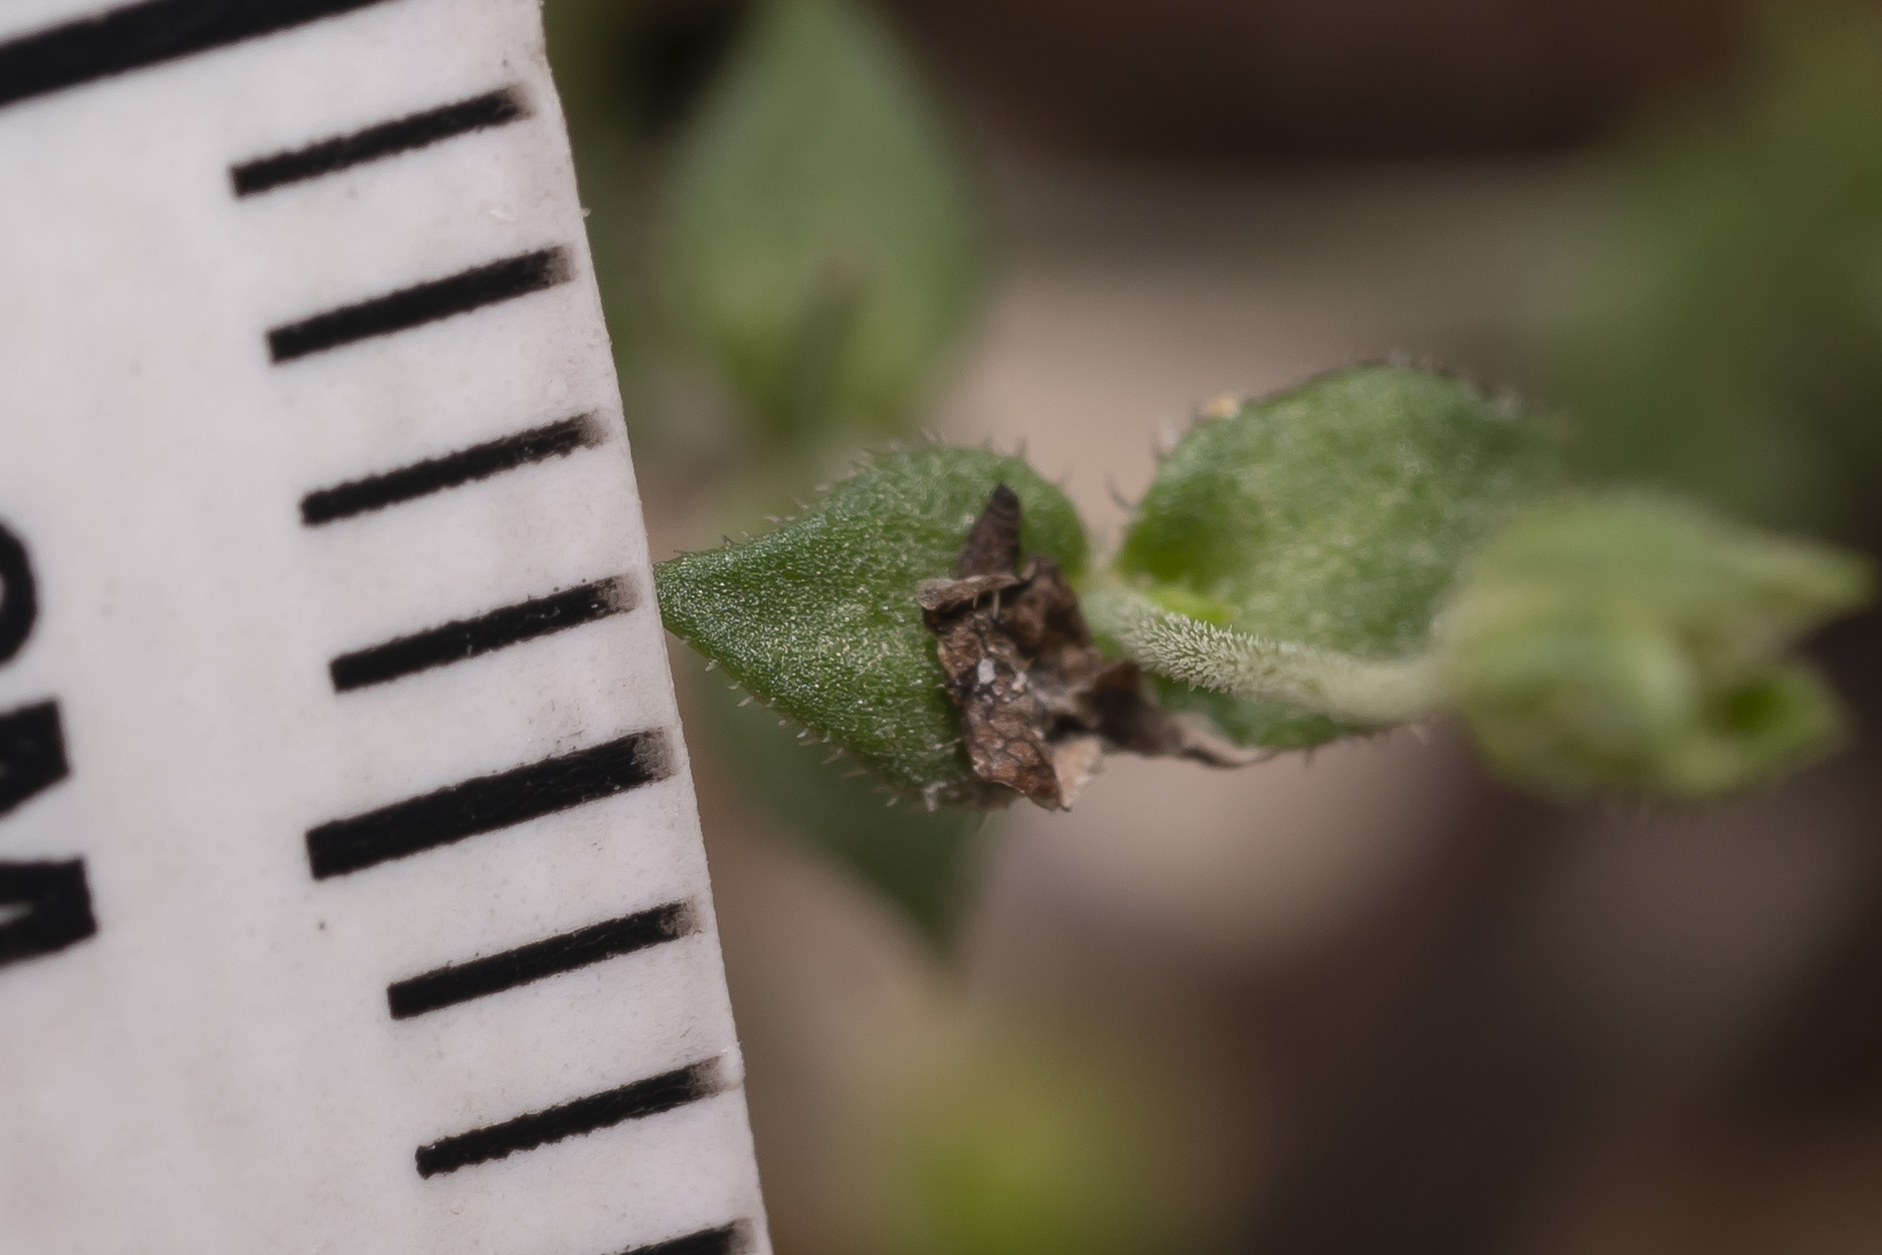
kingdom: Plantae
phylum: Tracheophyta
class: Magnoliopsida
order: Caryophyllales
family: Caryophyllaceae
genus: Arenaria
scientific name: Arenaria serpyllifolia
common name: Thyme-leaved sandwort
